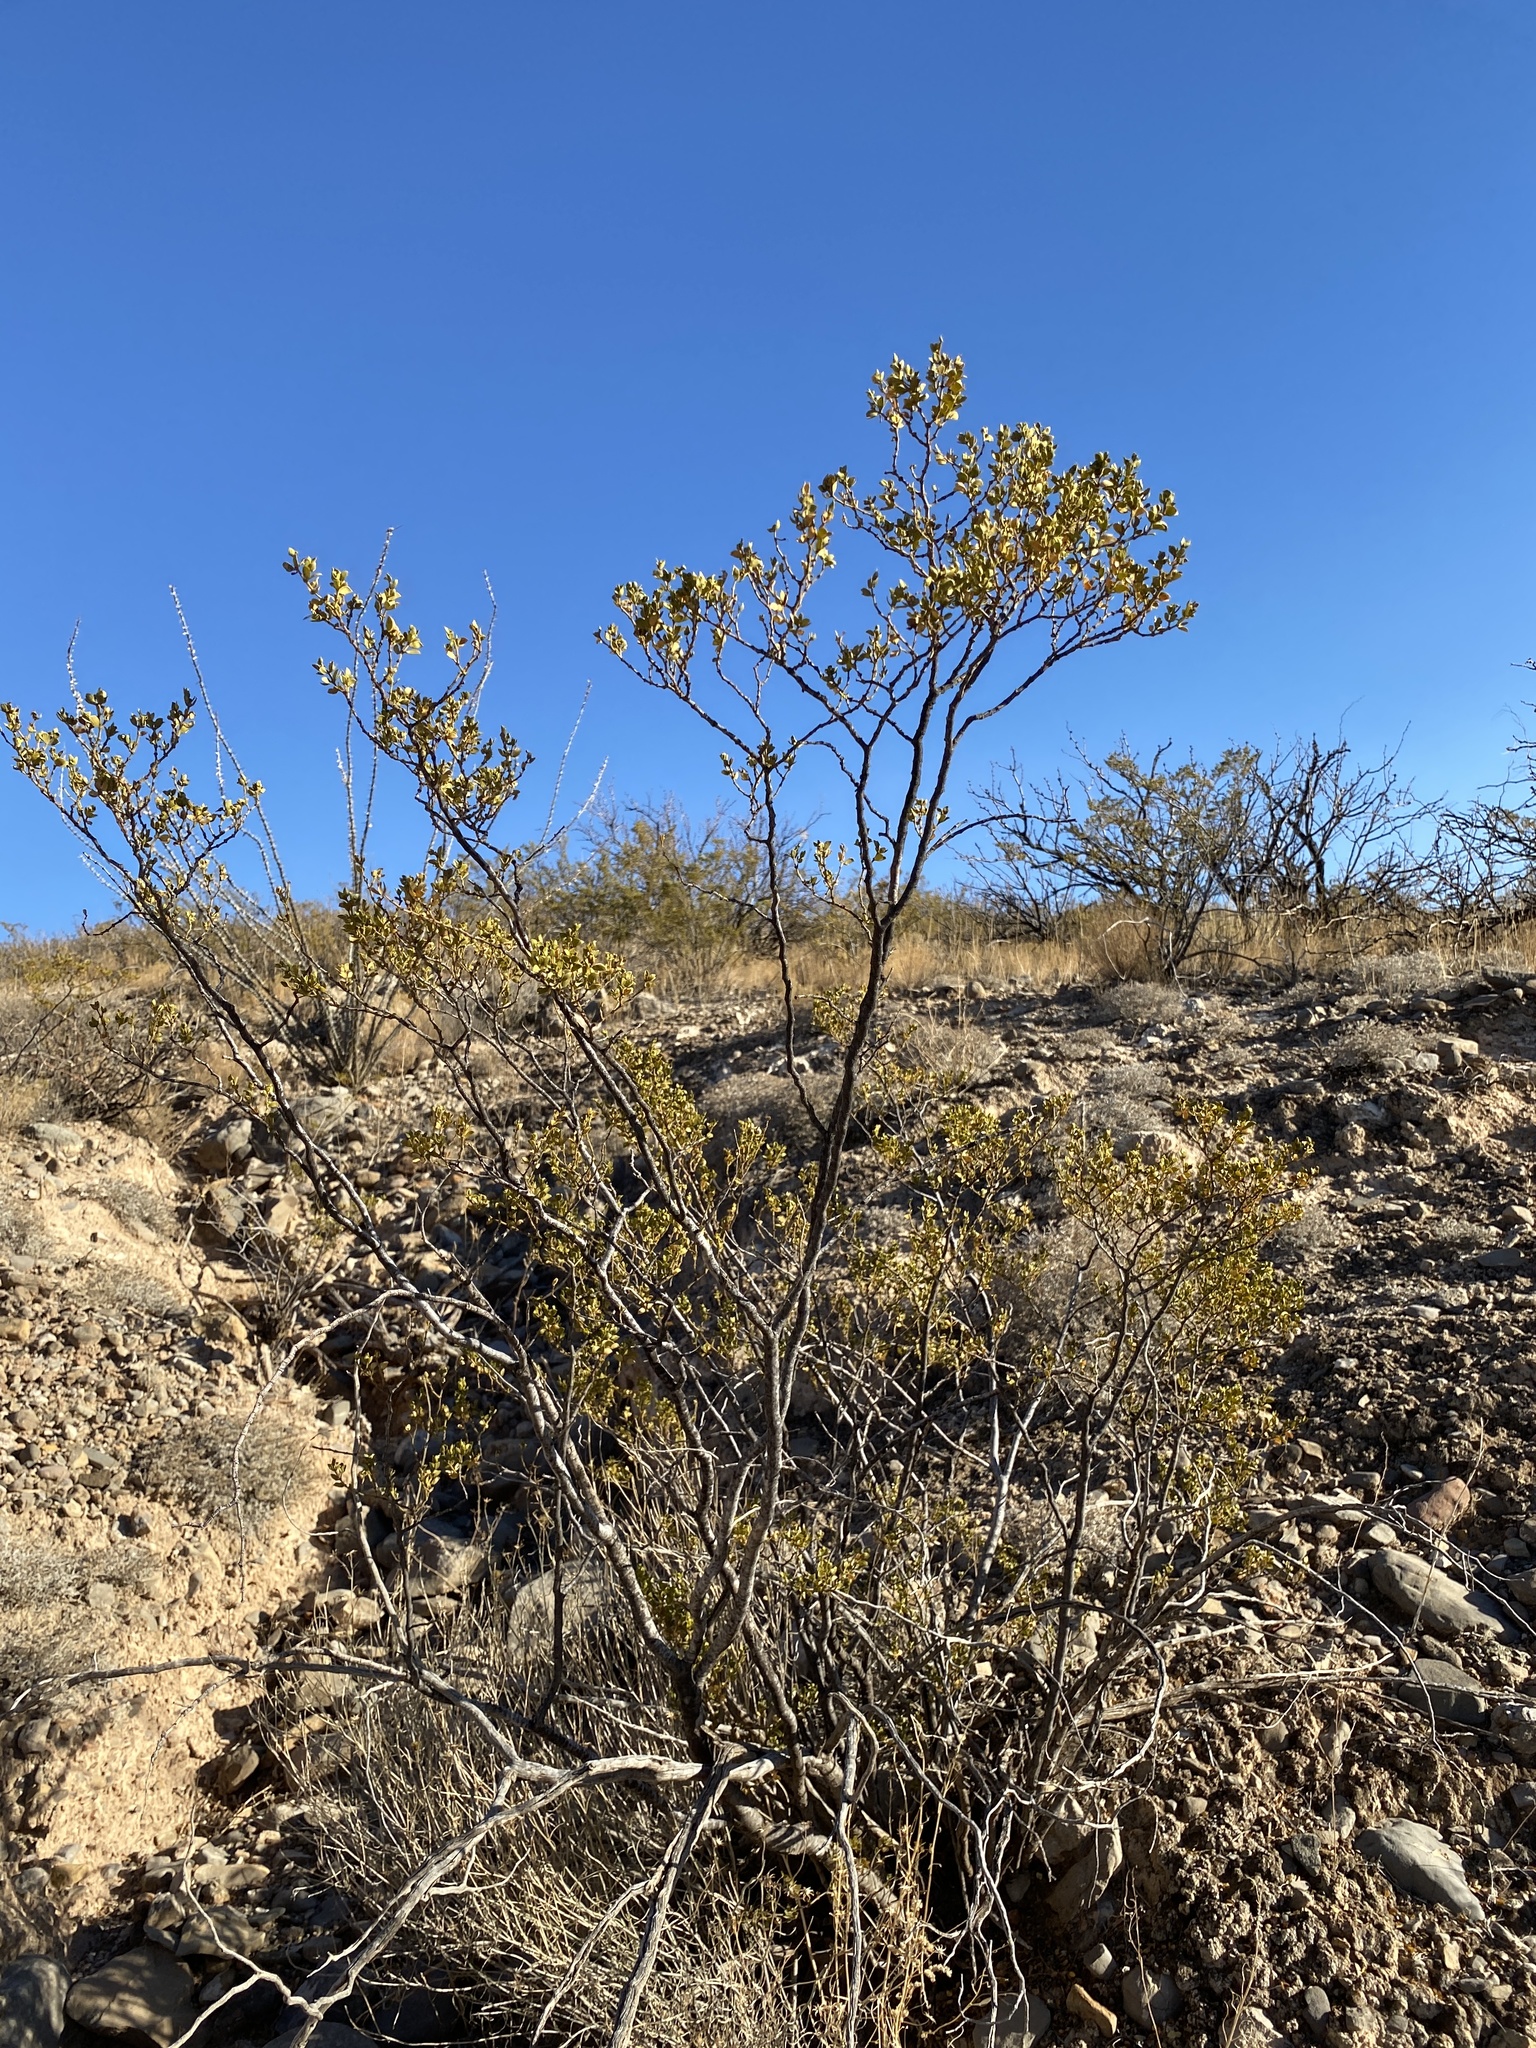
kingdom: Plantae
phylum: Tracheophyta
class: Magnoliopsida
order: Zygophyllales
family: Zygophyllaceae
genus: Larrea
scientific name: Larrea tridentata
